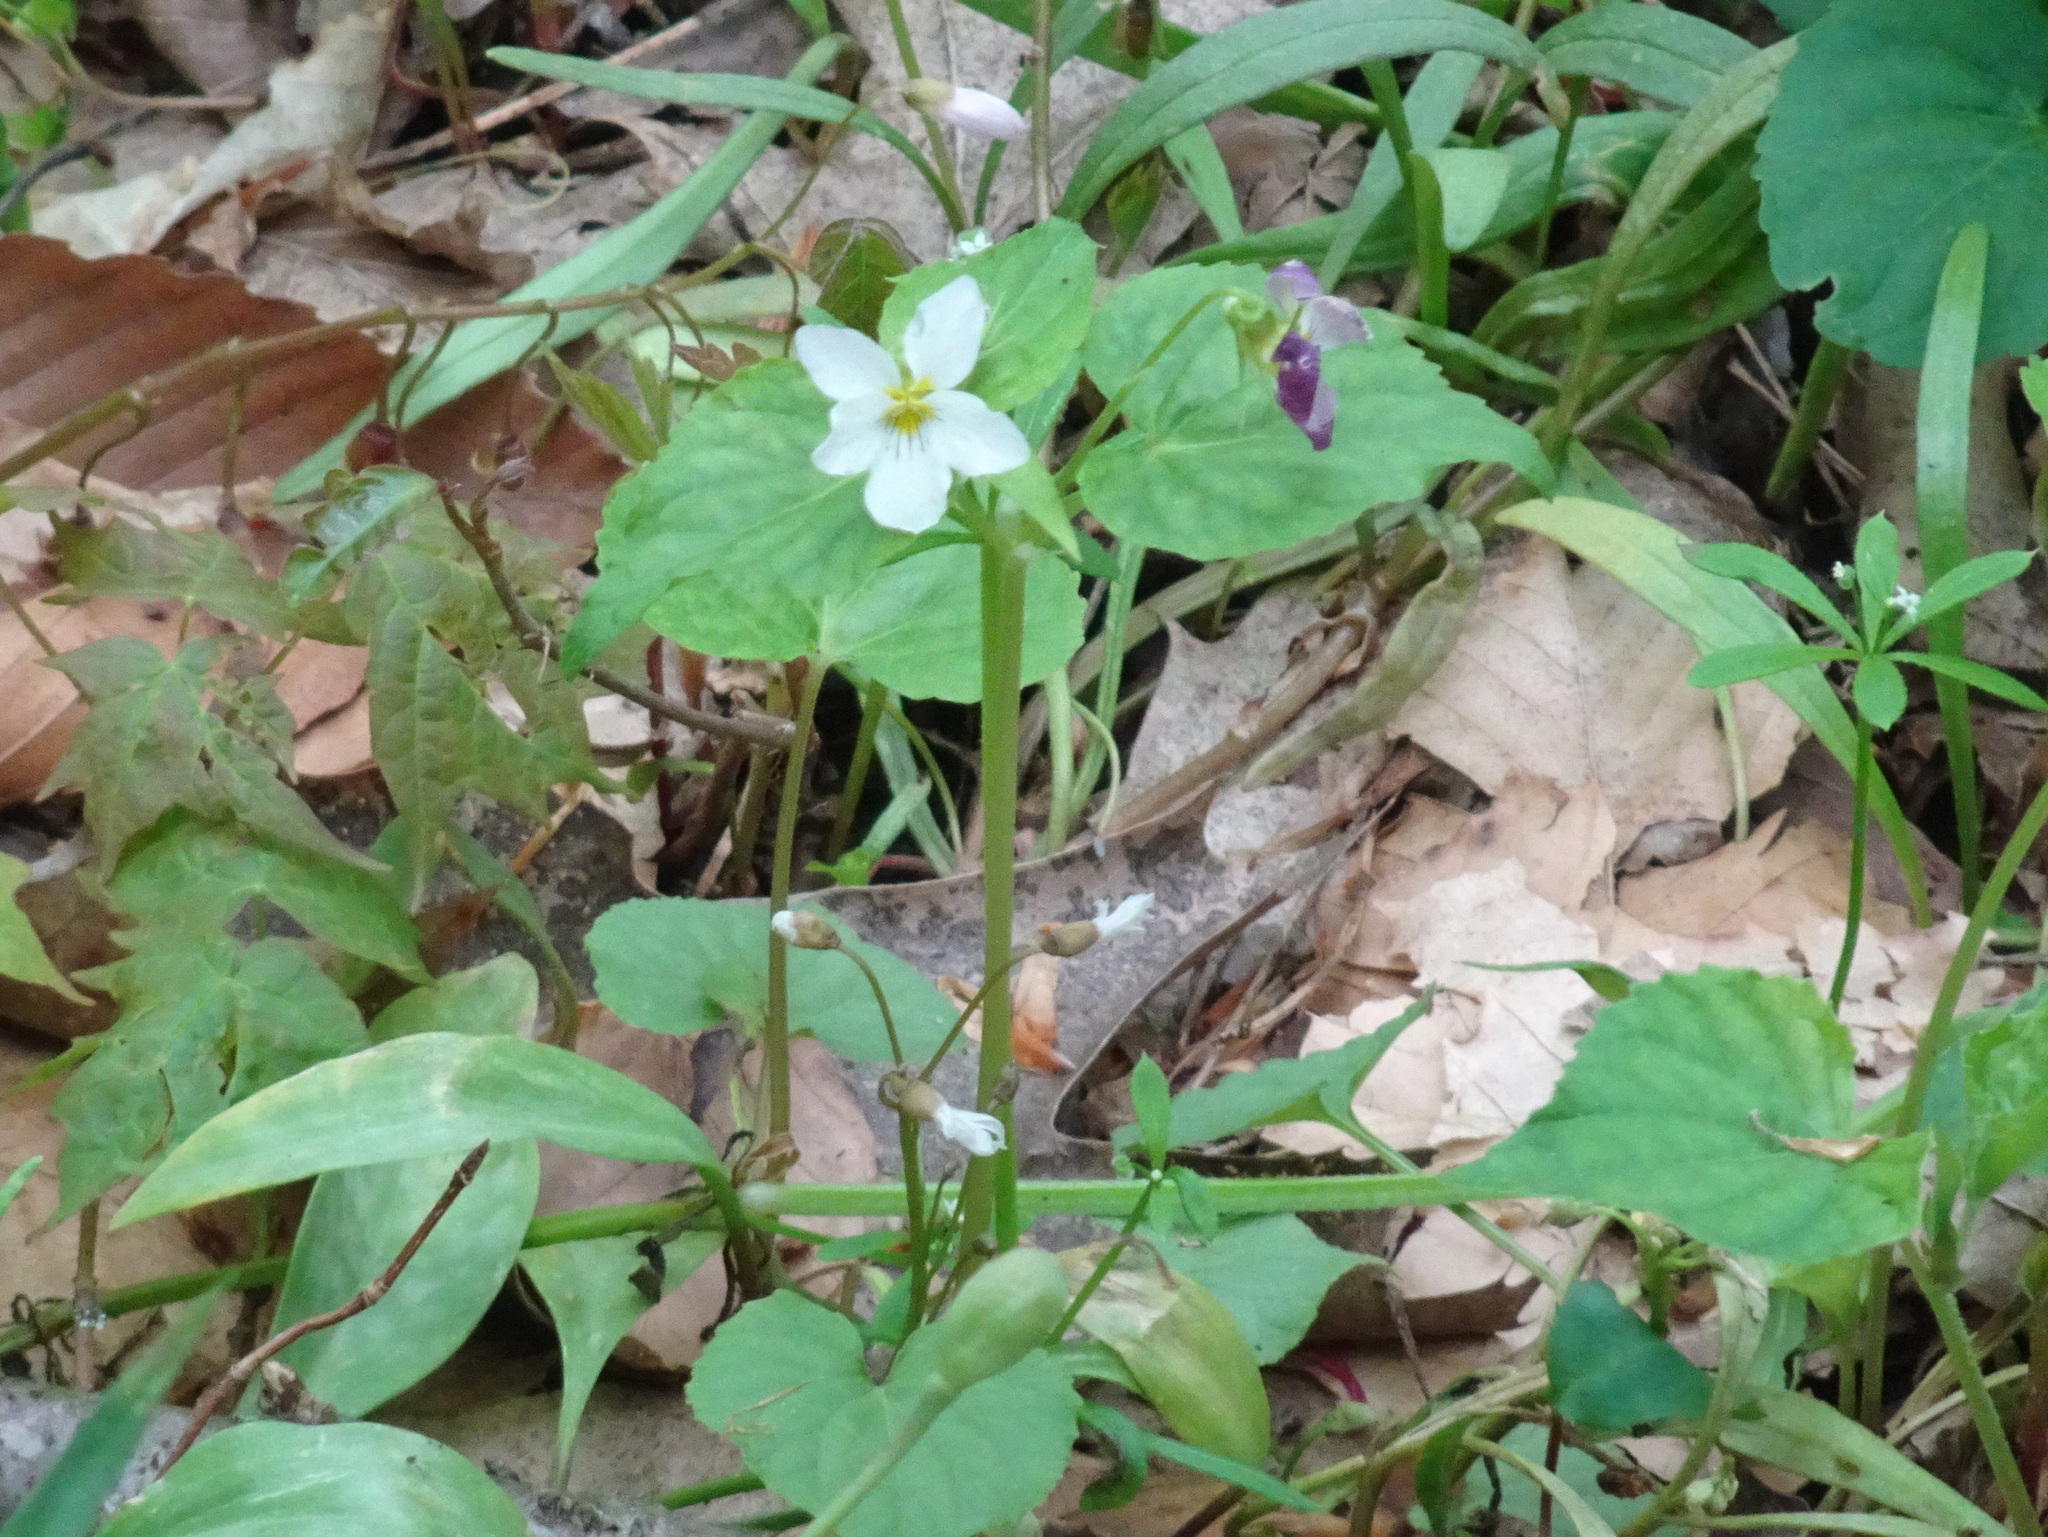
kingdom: Plantae
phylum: Tracheophyta
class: Magnoliopsida
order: Malpighiales
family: Violaceae
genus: Viola
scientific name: Viola canadensis
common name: Canada violet
